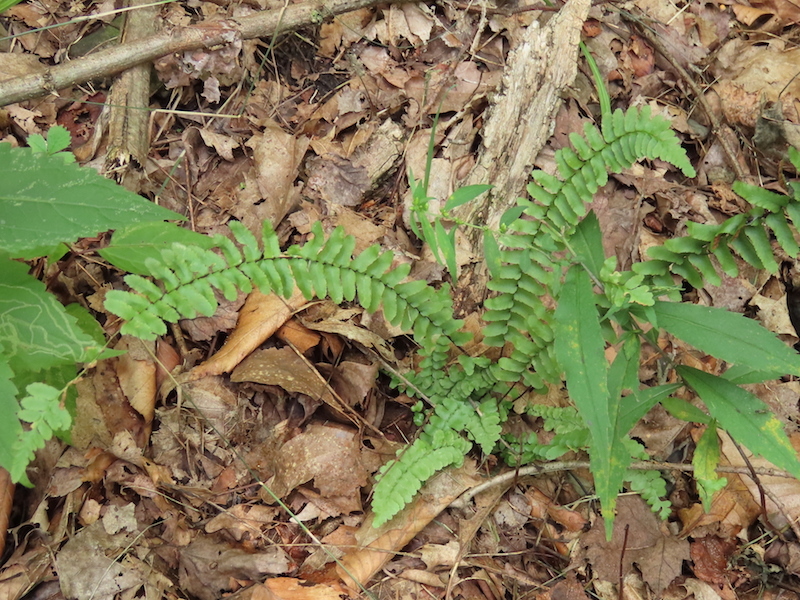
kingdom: Plantae
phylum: Tracheophyta
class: Polypodiopsida
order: Polypodiales
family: Aspleniaceae
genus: Asplenium
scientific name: Asplenium platyneuron
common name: Ebony spleenwort
